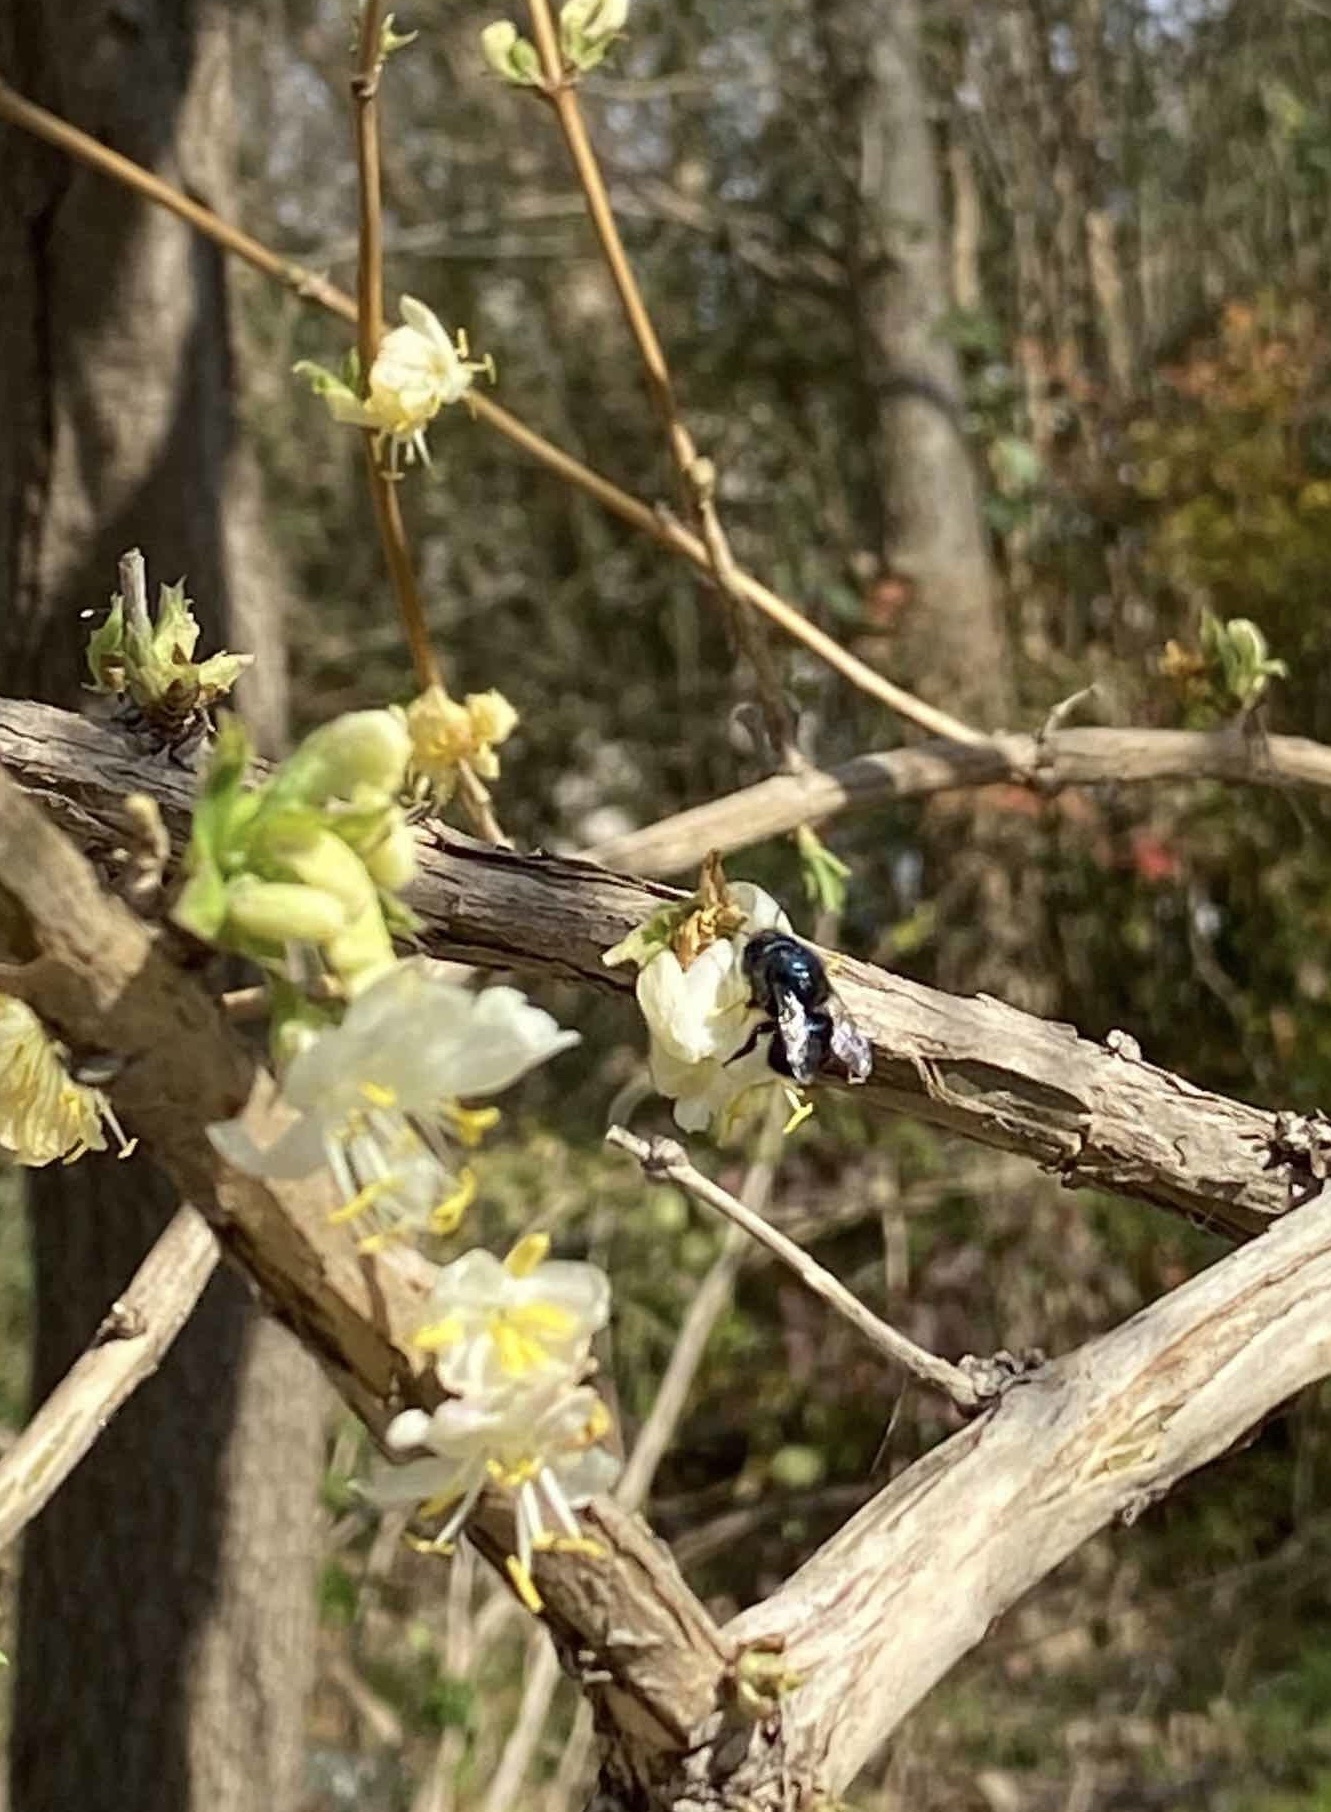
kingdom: Animalia
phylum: Arthropoda
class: Insecta
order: Hymenoptera
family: Megachilidae
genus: Osmia
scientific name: Osmia ribifloris
